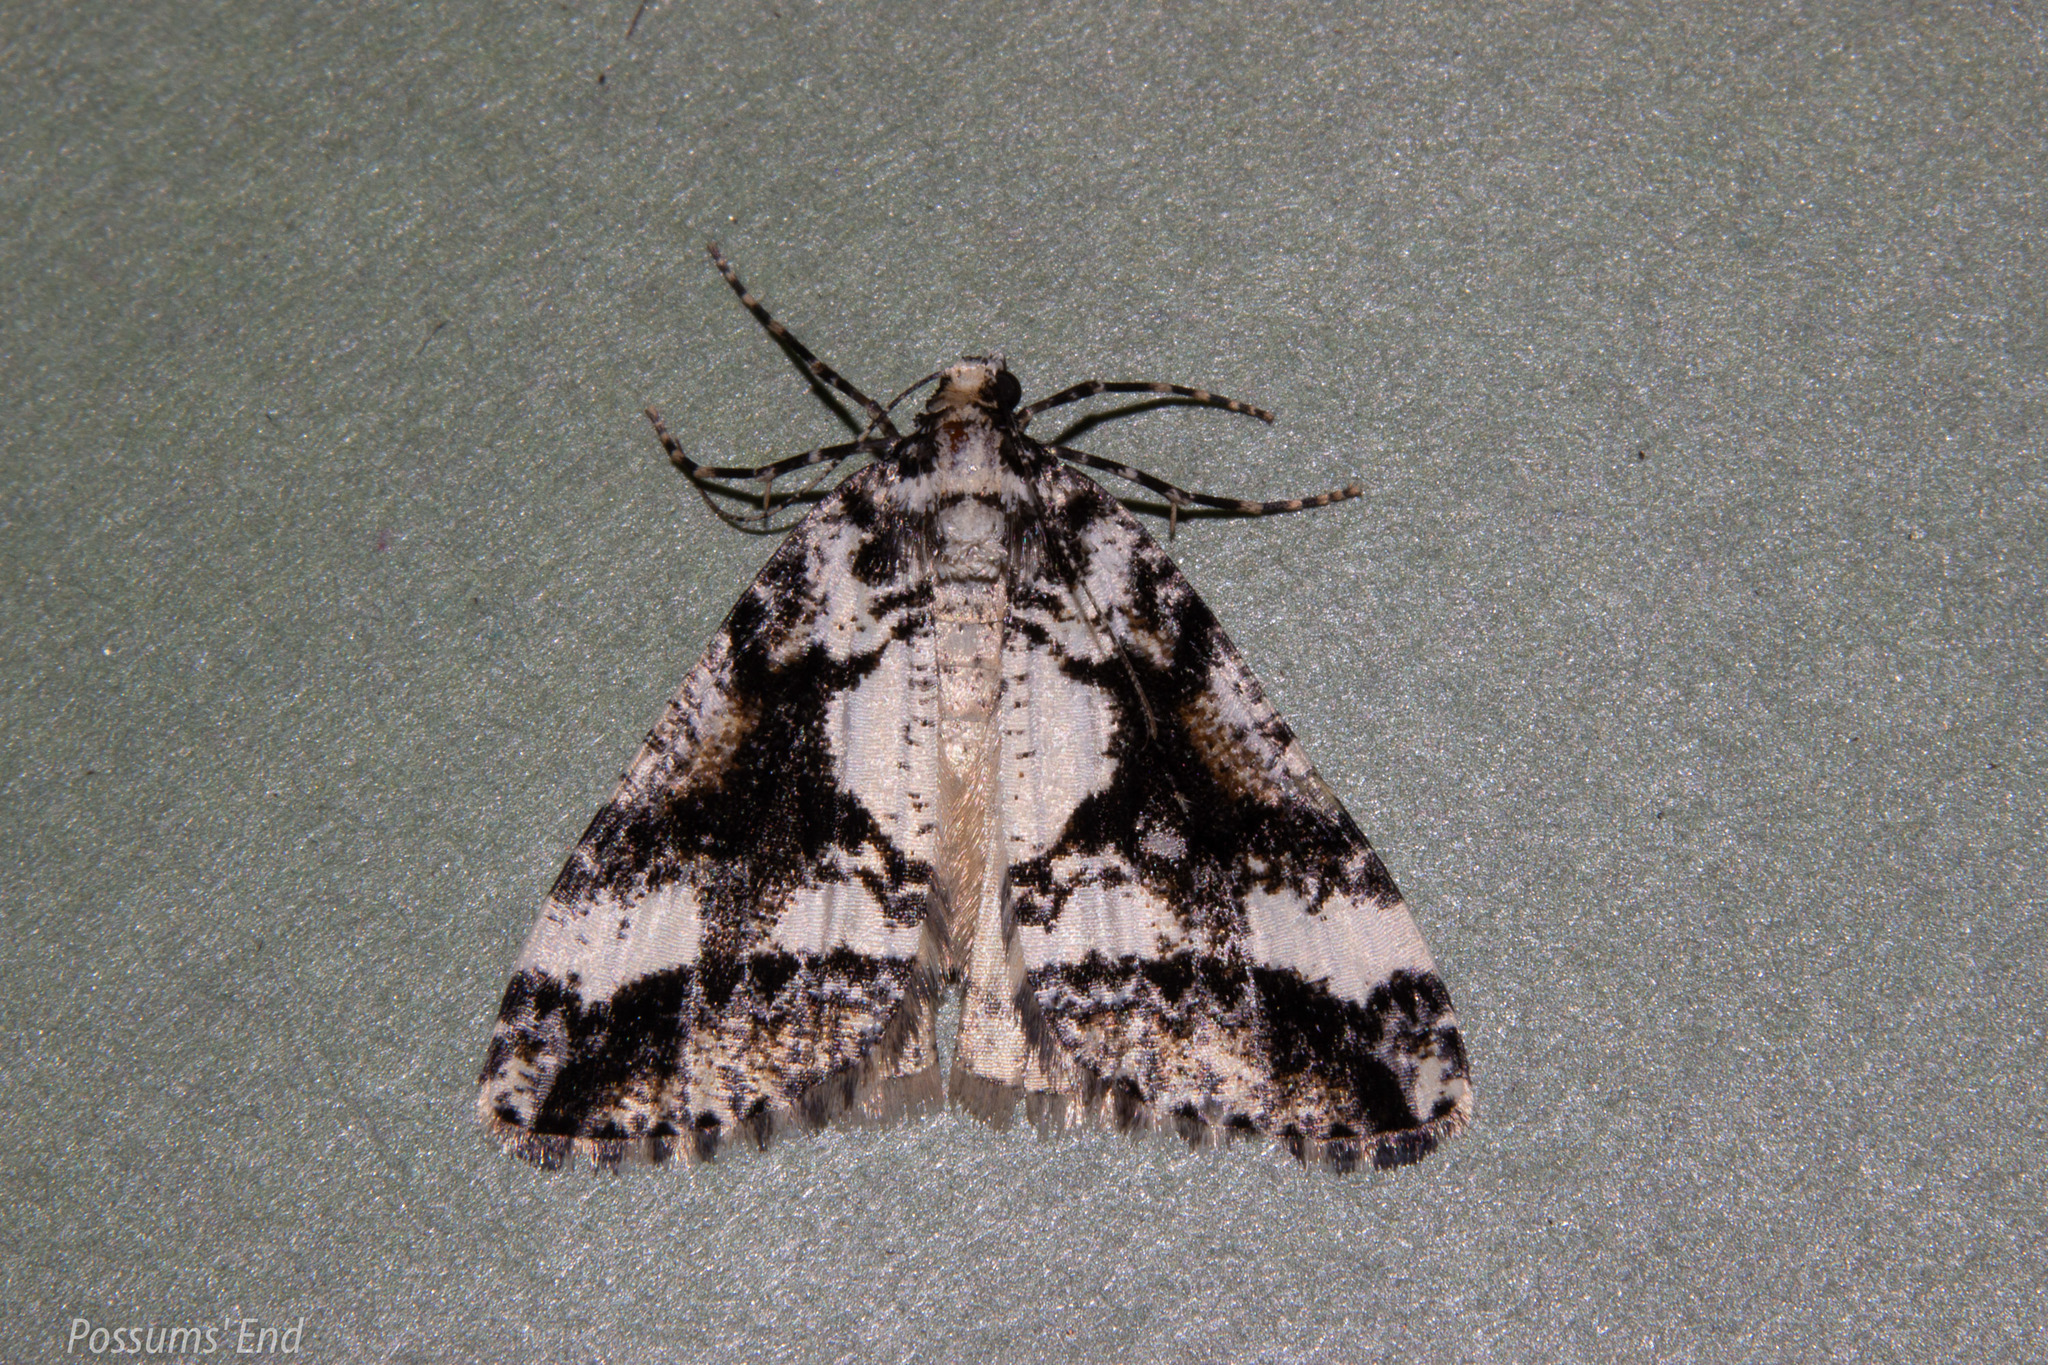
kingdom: Animalia
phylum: Arthropoda
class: Insecta
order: Lepidoptera
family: Geometridae
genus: Pseudocoremia
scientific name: Pseudocoremia leucelaea
